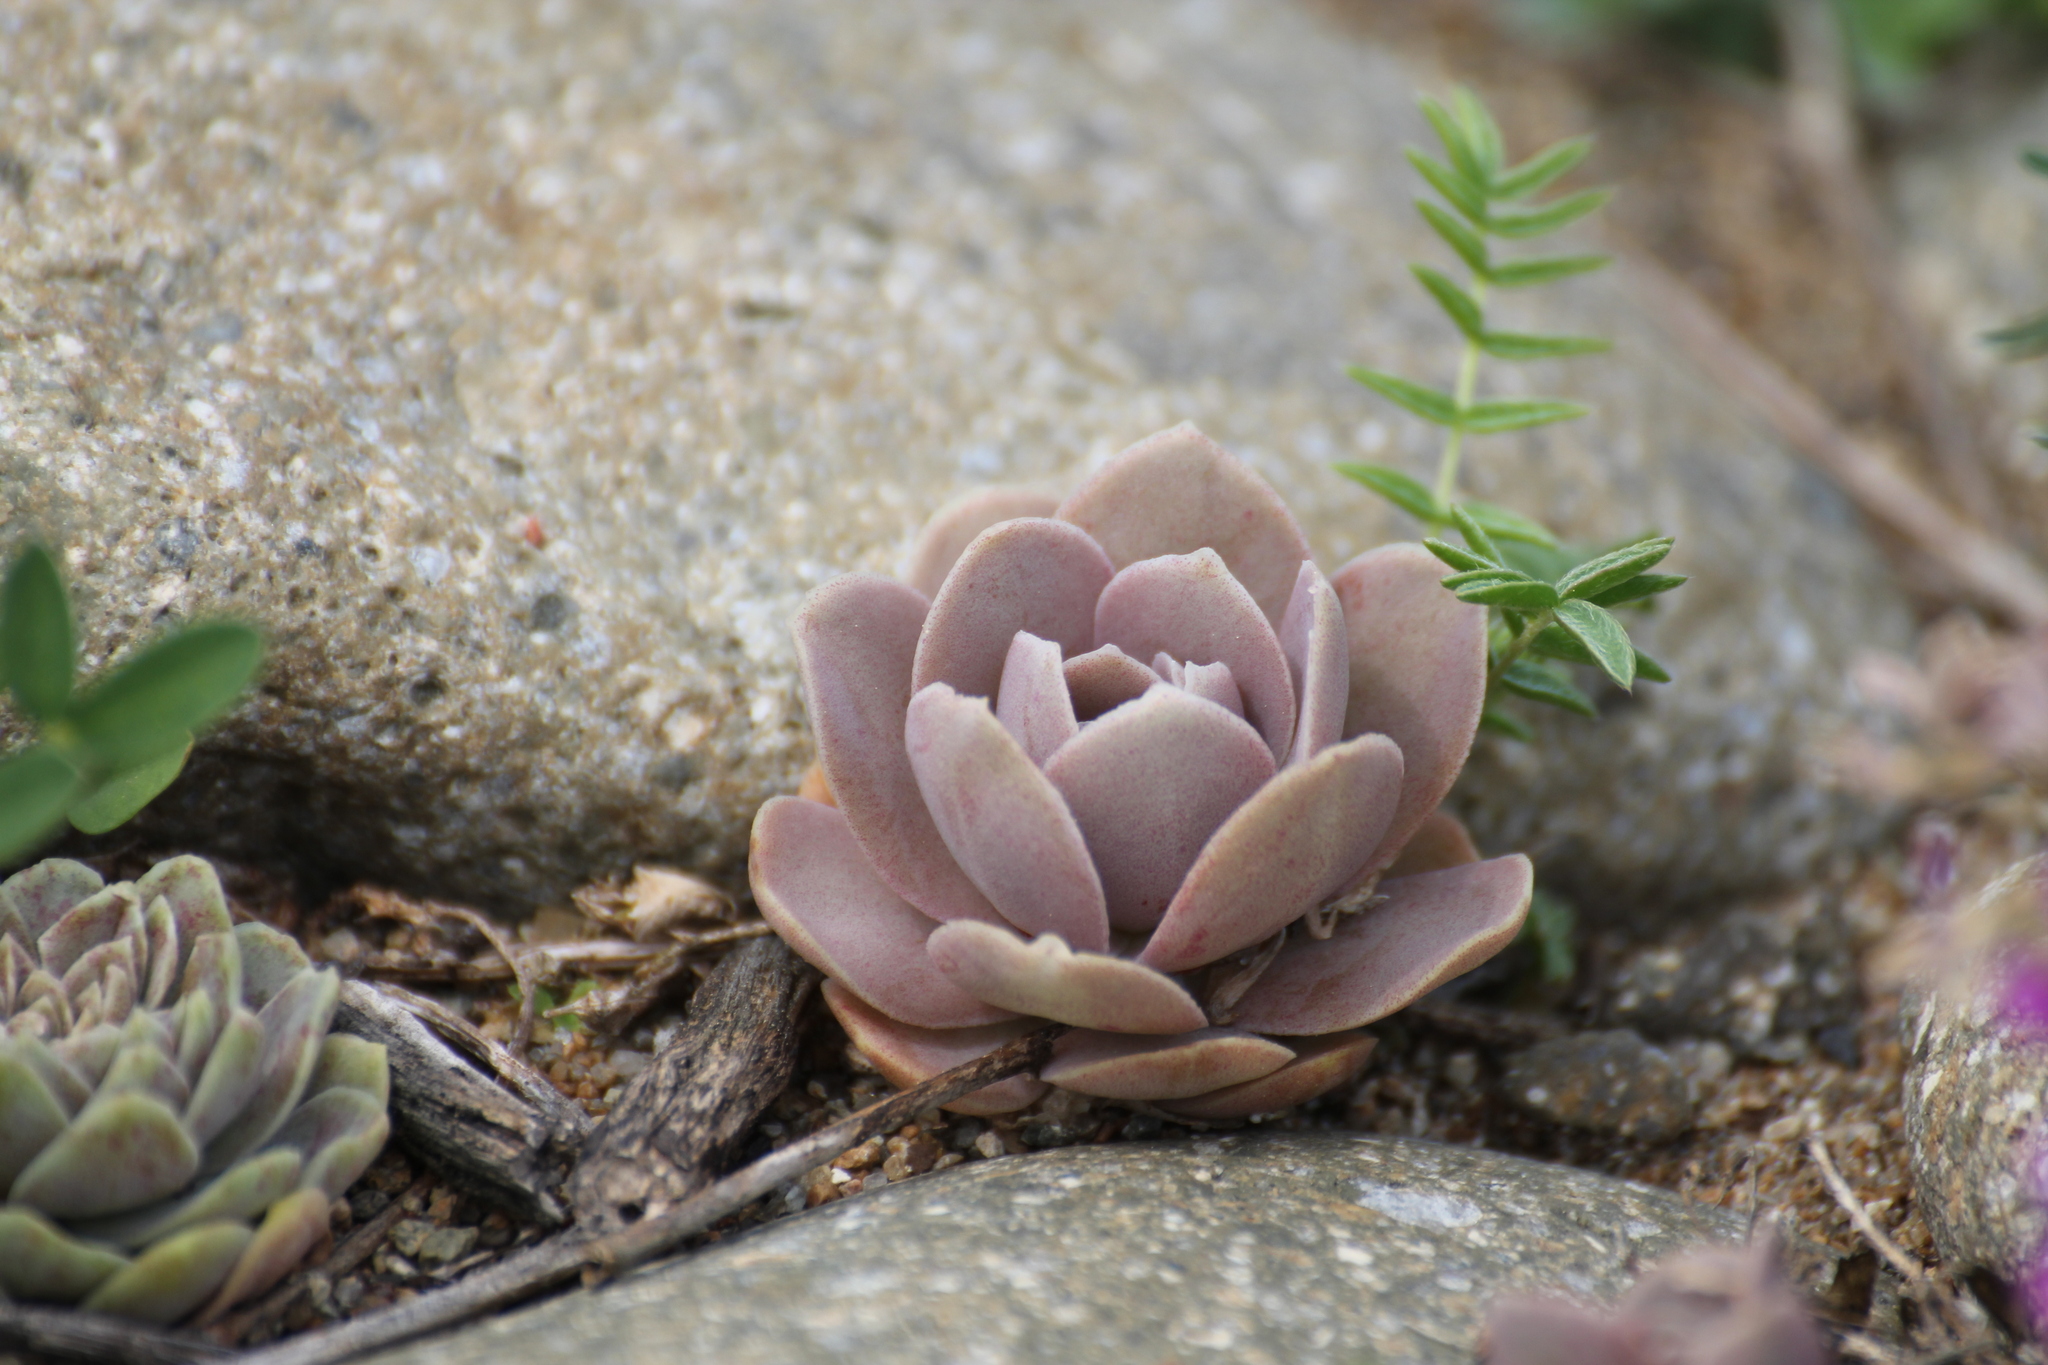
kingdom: Plantae
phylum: Tracheophyta
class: Magnoliopsida
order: Saxifragales
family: Crassulaceae
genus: Orostachys
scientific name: Orostachys malacophylla
